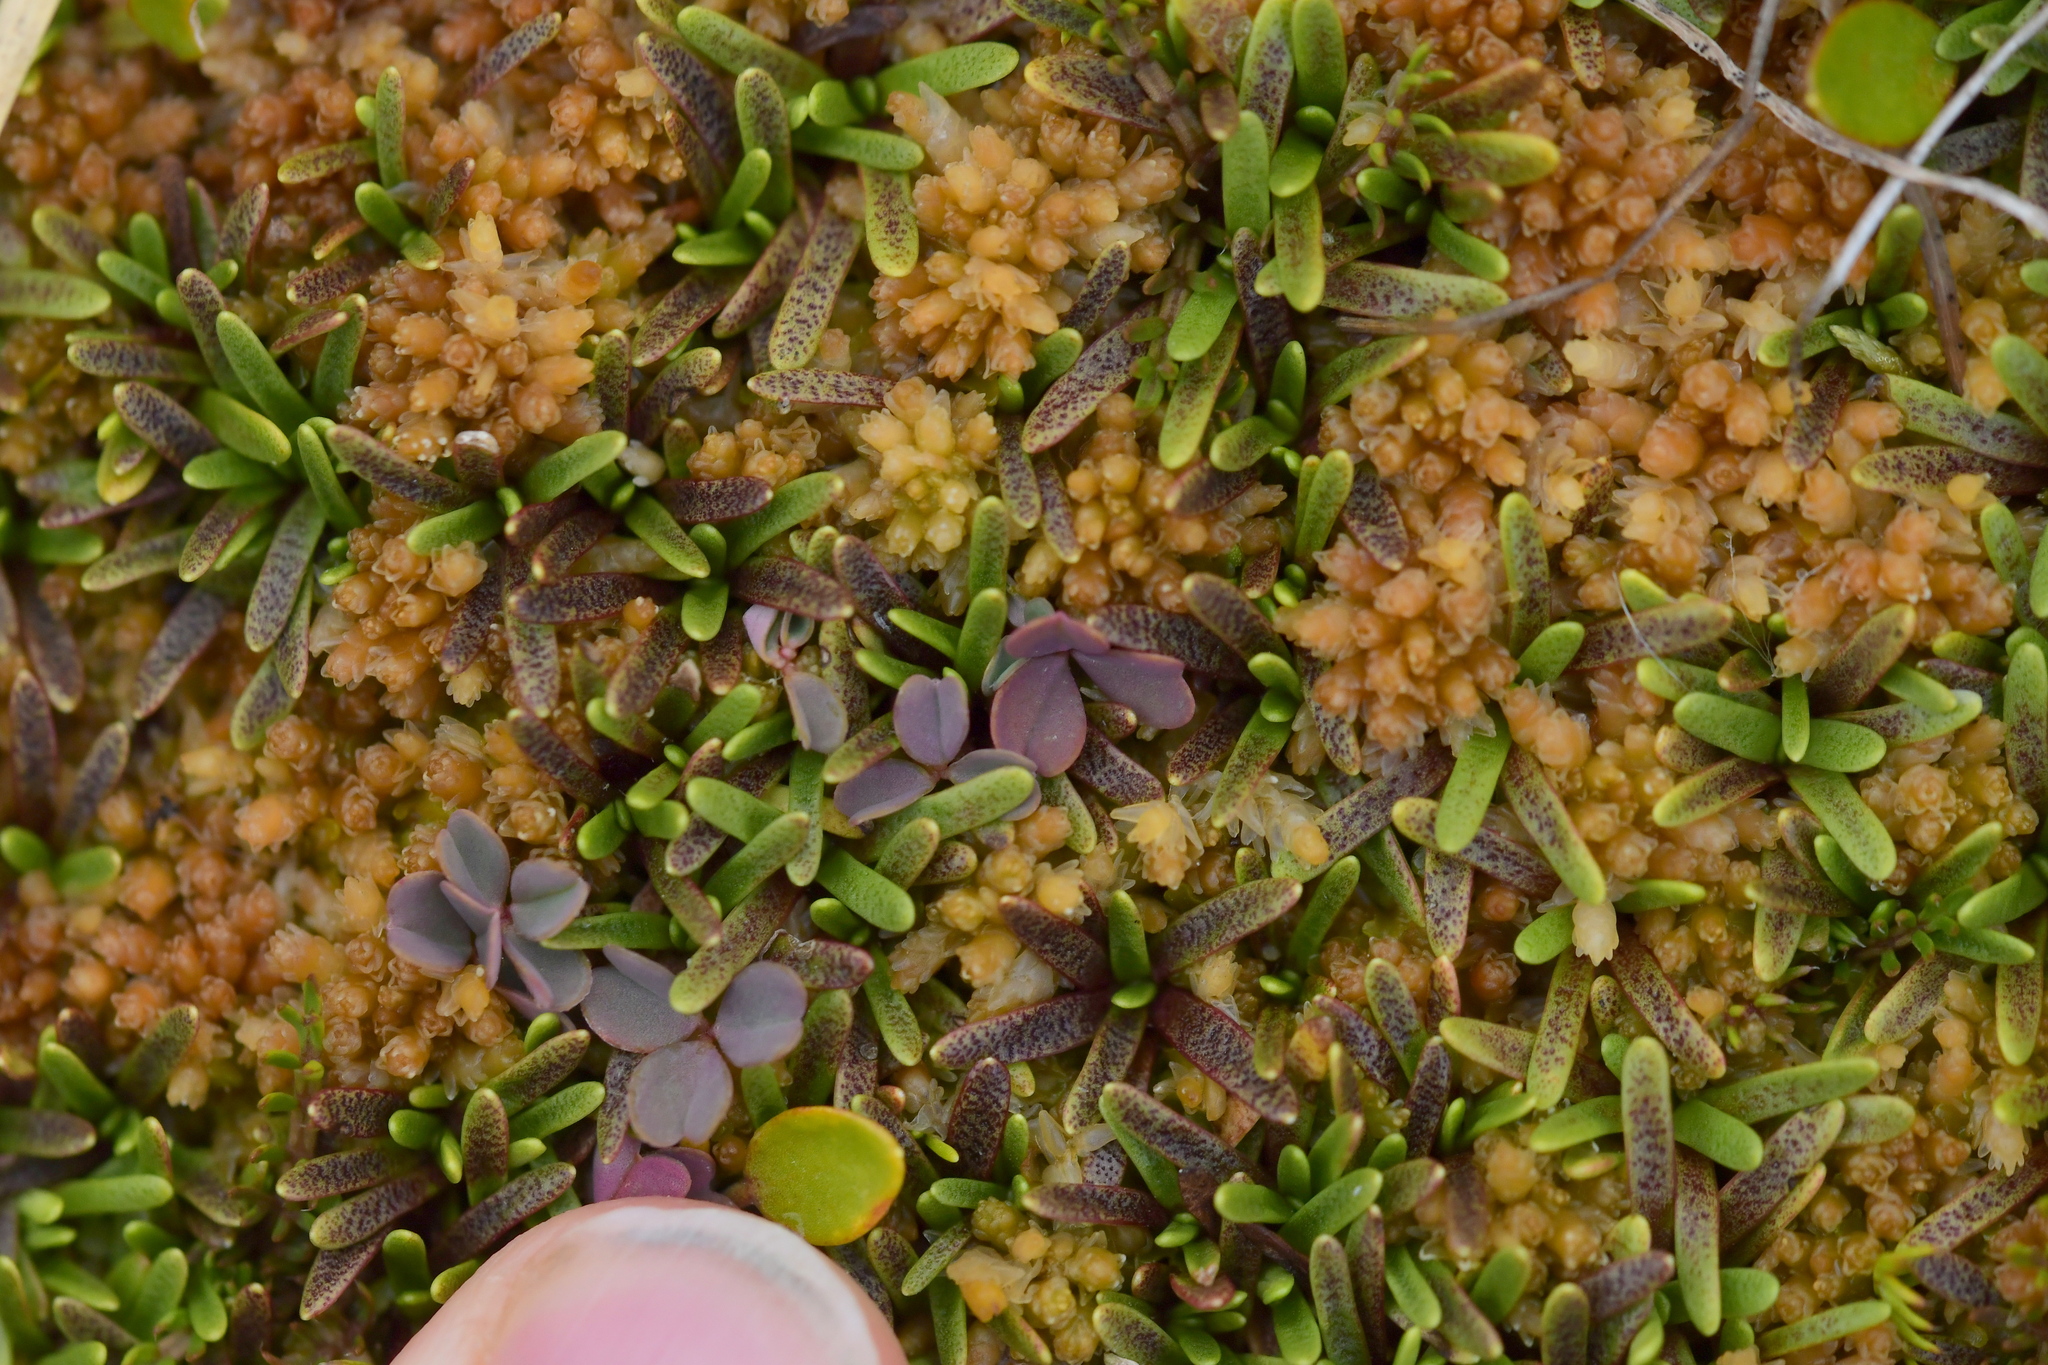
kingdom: Plantae
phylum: Tracheophyta
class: Magnoliopsida
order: Asterales
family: Asteraceae
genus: Abrotanella
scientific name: Abrotanella caespitosa
